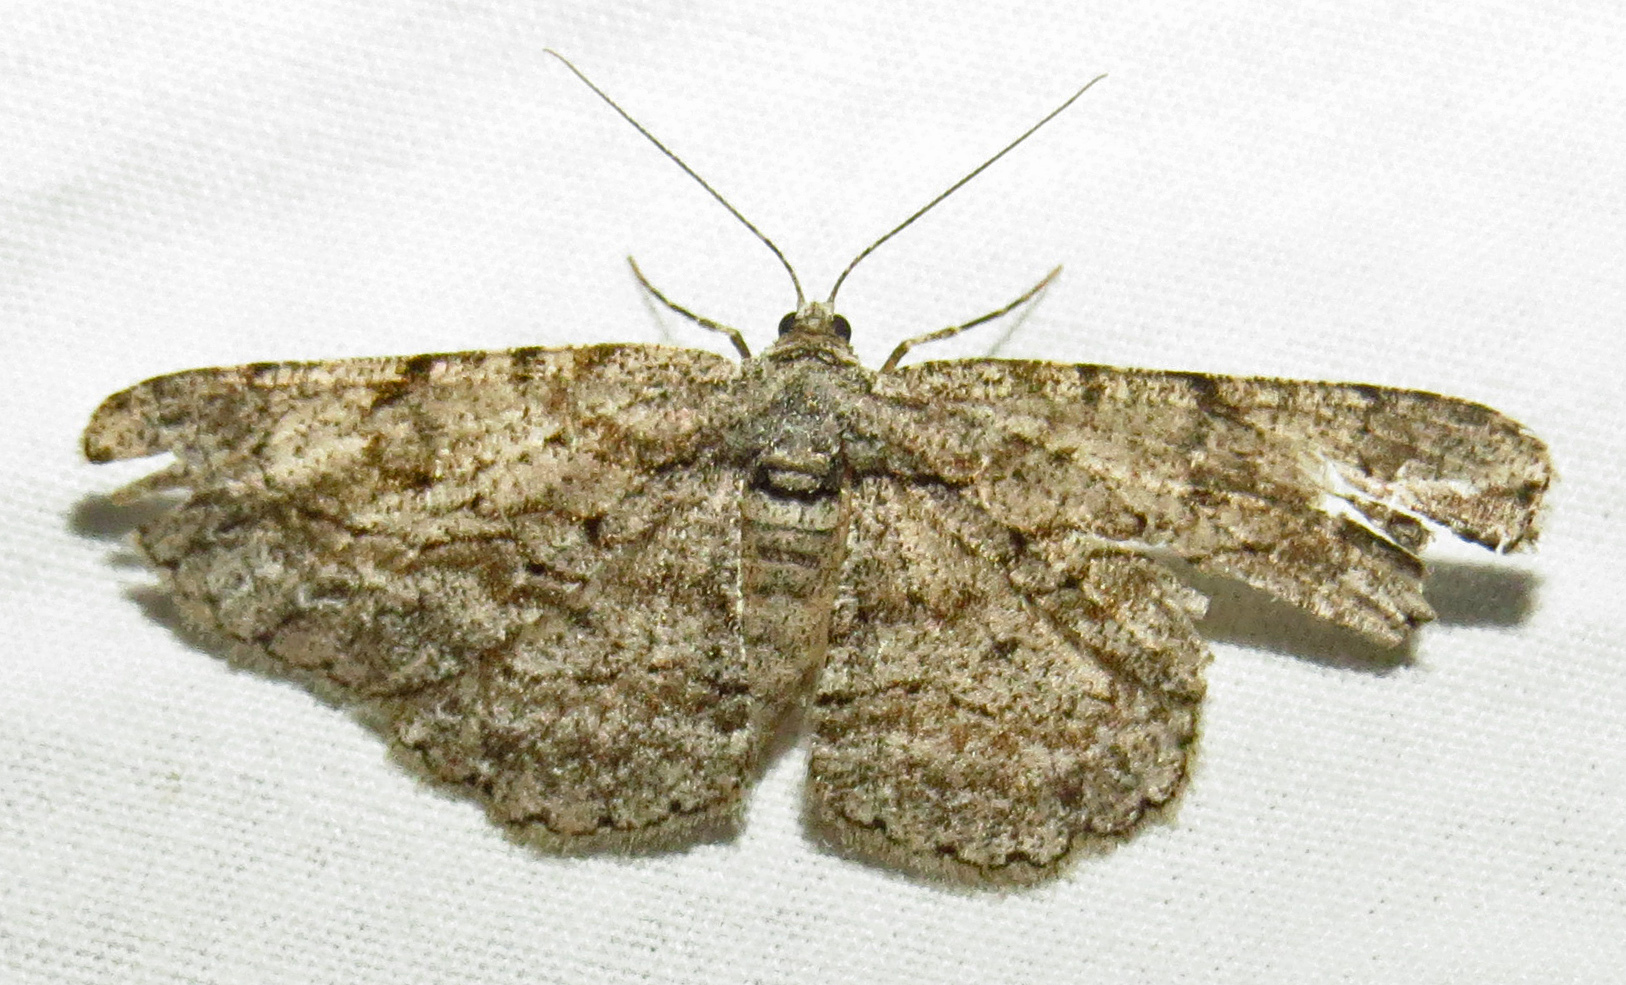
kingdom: Animalia
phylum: Arthropoda
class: Insecta
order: Lepidoptera
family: Geometridae
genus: Anavitrinella
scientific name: Anavitrinella pampinaria
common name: Common gray
